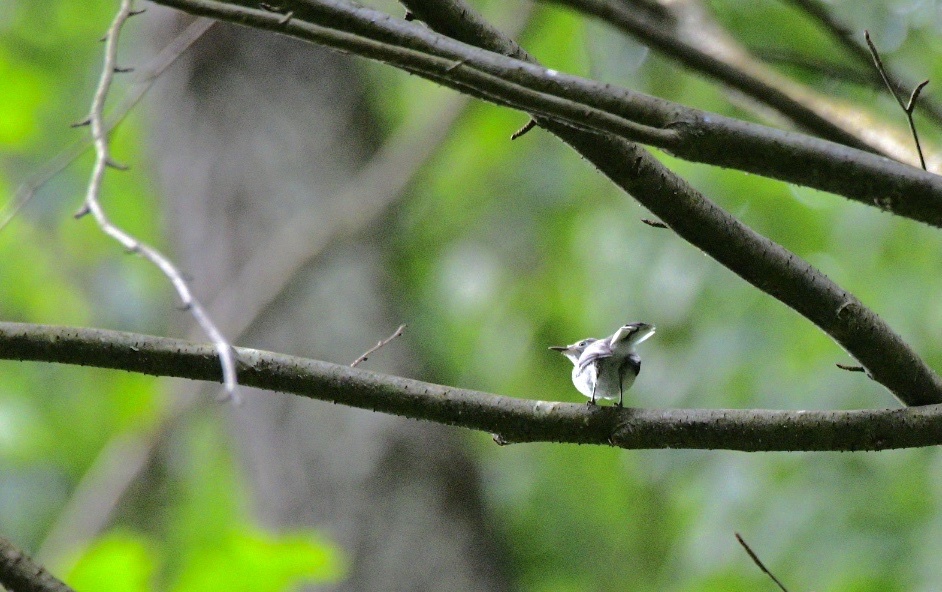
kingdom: Animalia
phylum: Chordata
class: Aves
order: Passeriformes
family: Polioptilidae
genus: Polioptila
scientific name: Polioptila caerulea
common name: Blue-gray gnatcatcher
